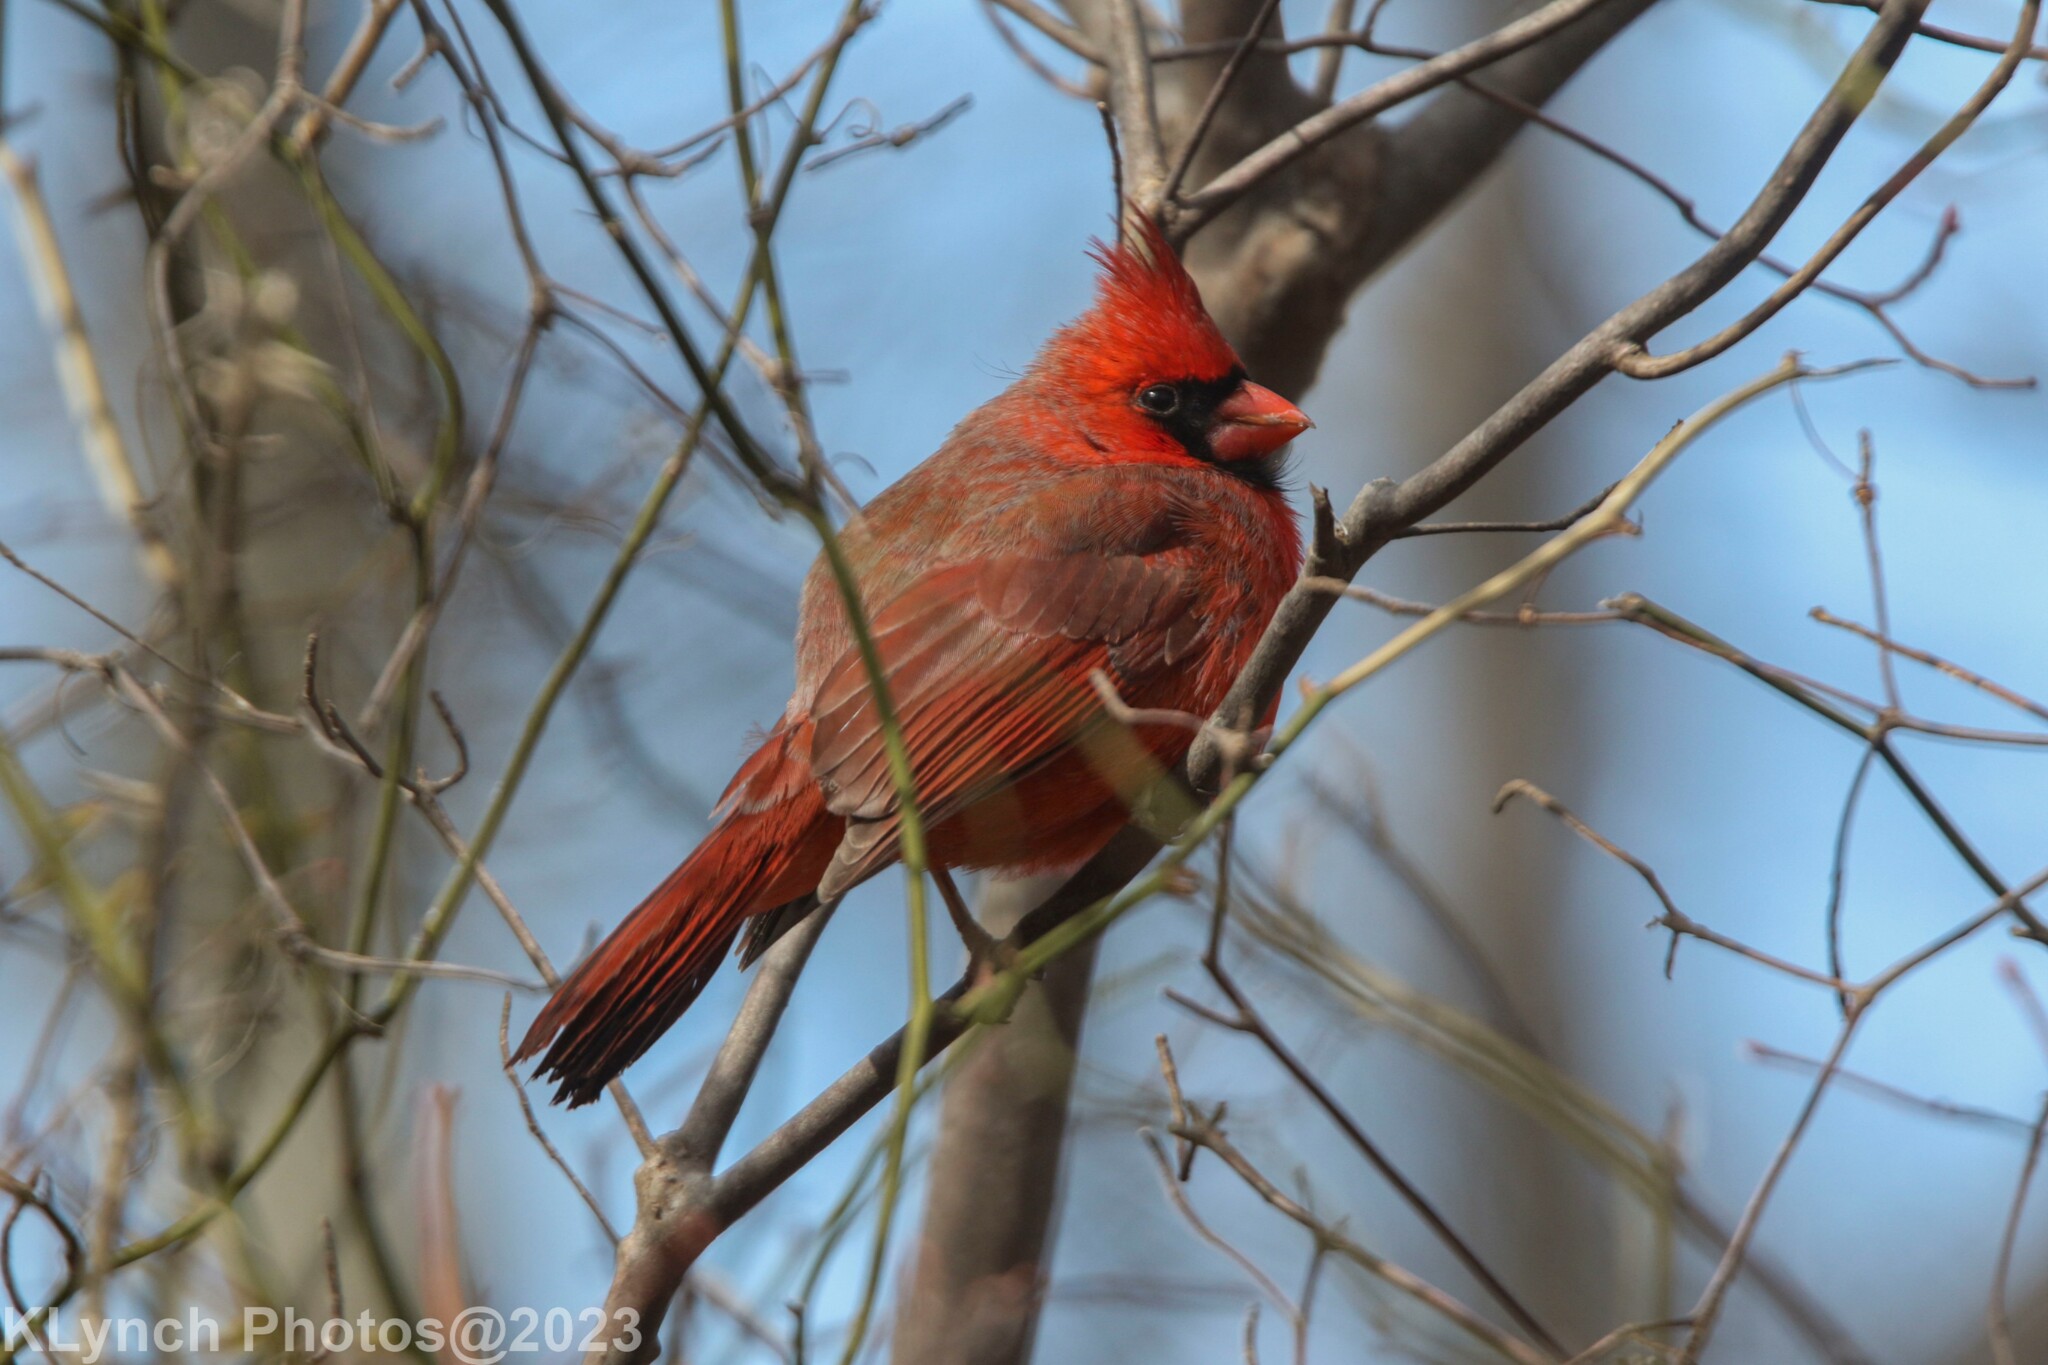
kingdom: Animalia
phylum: Chordata
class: Aves
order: Passeriformes
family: Cardinalidae
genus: Cardinalis
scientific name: Cardinalis cardinalis
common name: Northern cardinal
